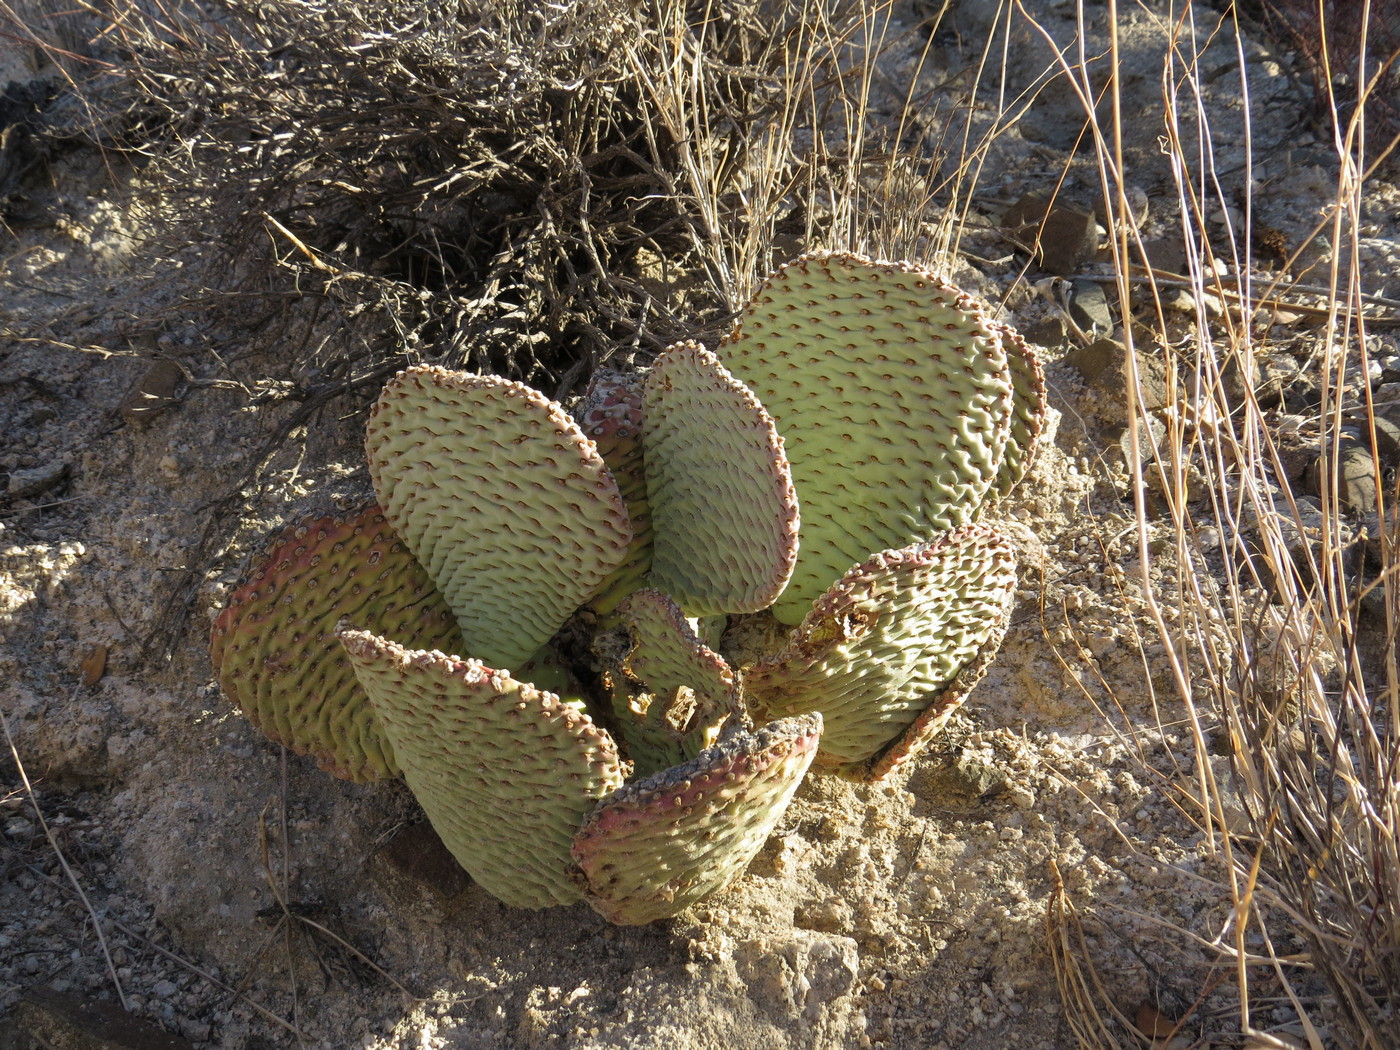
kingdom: Plantae
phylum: Tracheophyta
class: Magnoliopsida
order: Caryophyllales
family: Cactaceae
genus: Opuntia
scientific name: Opuntia basilaris
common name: Beavertail prickly-pear
